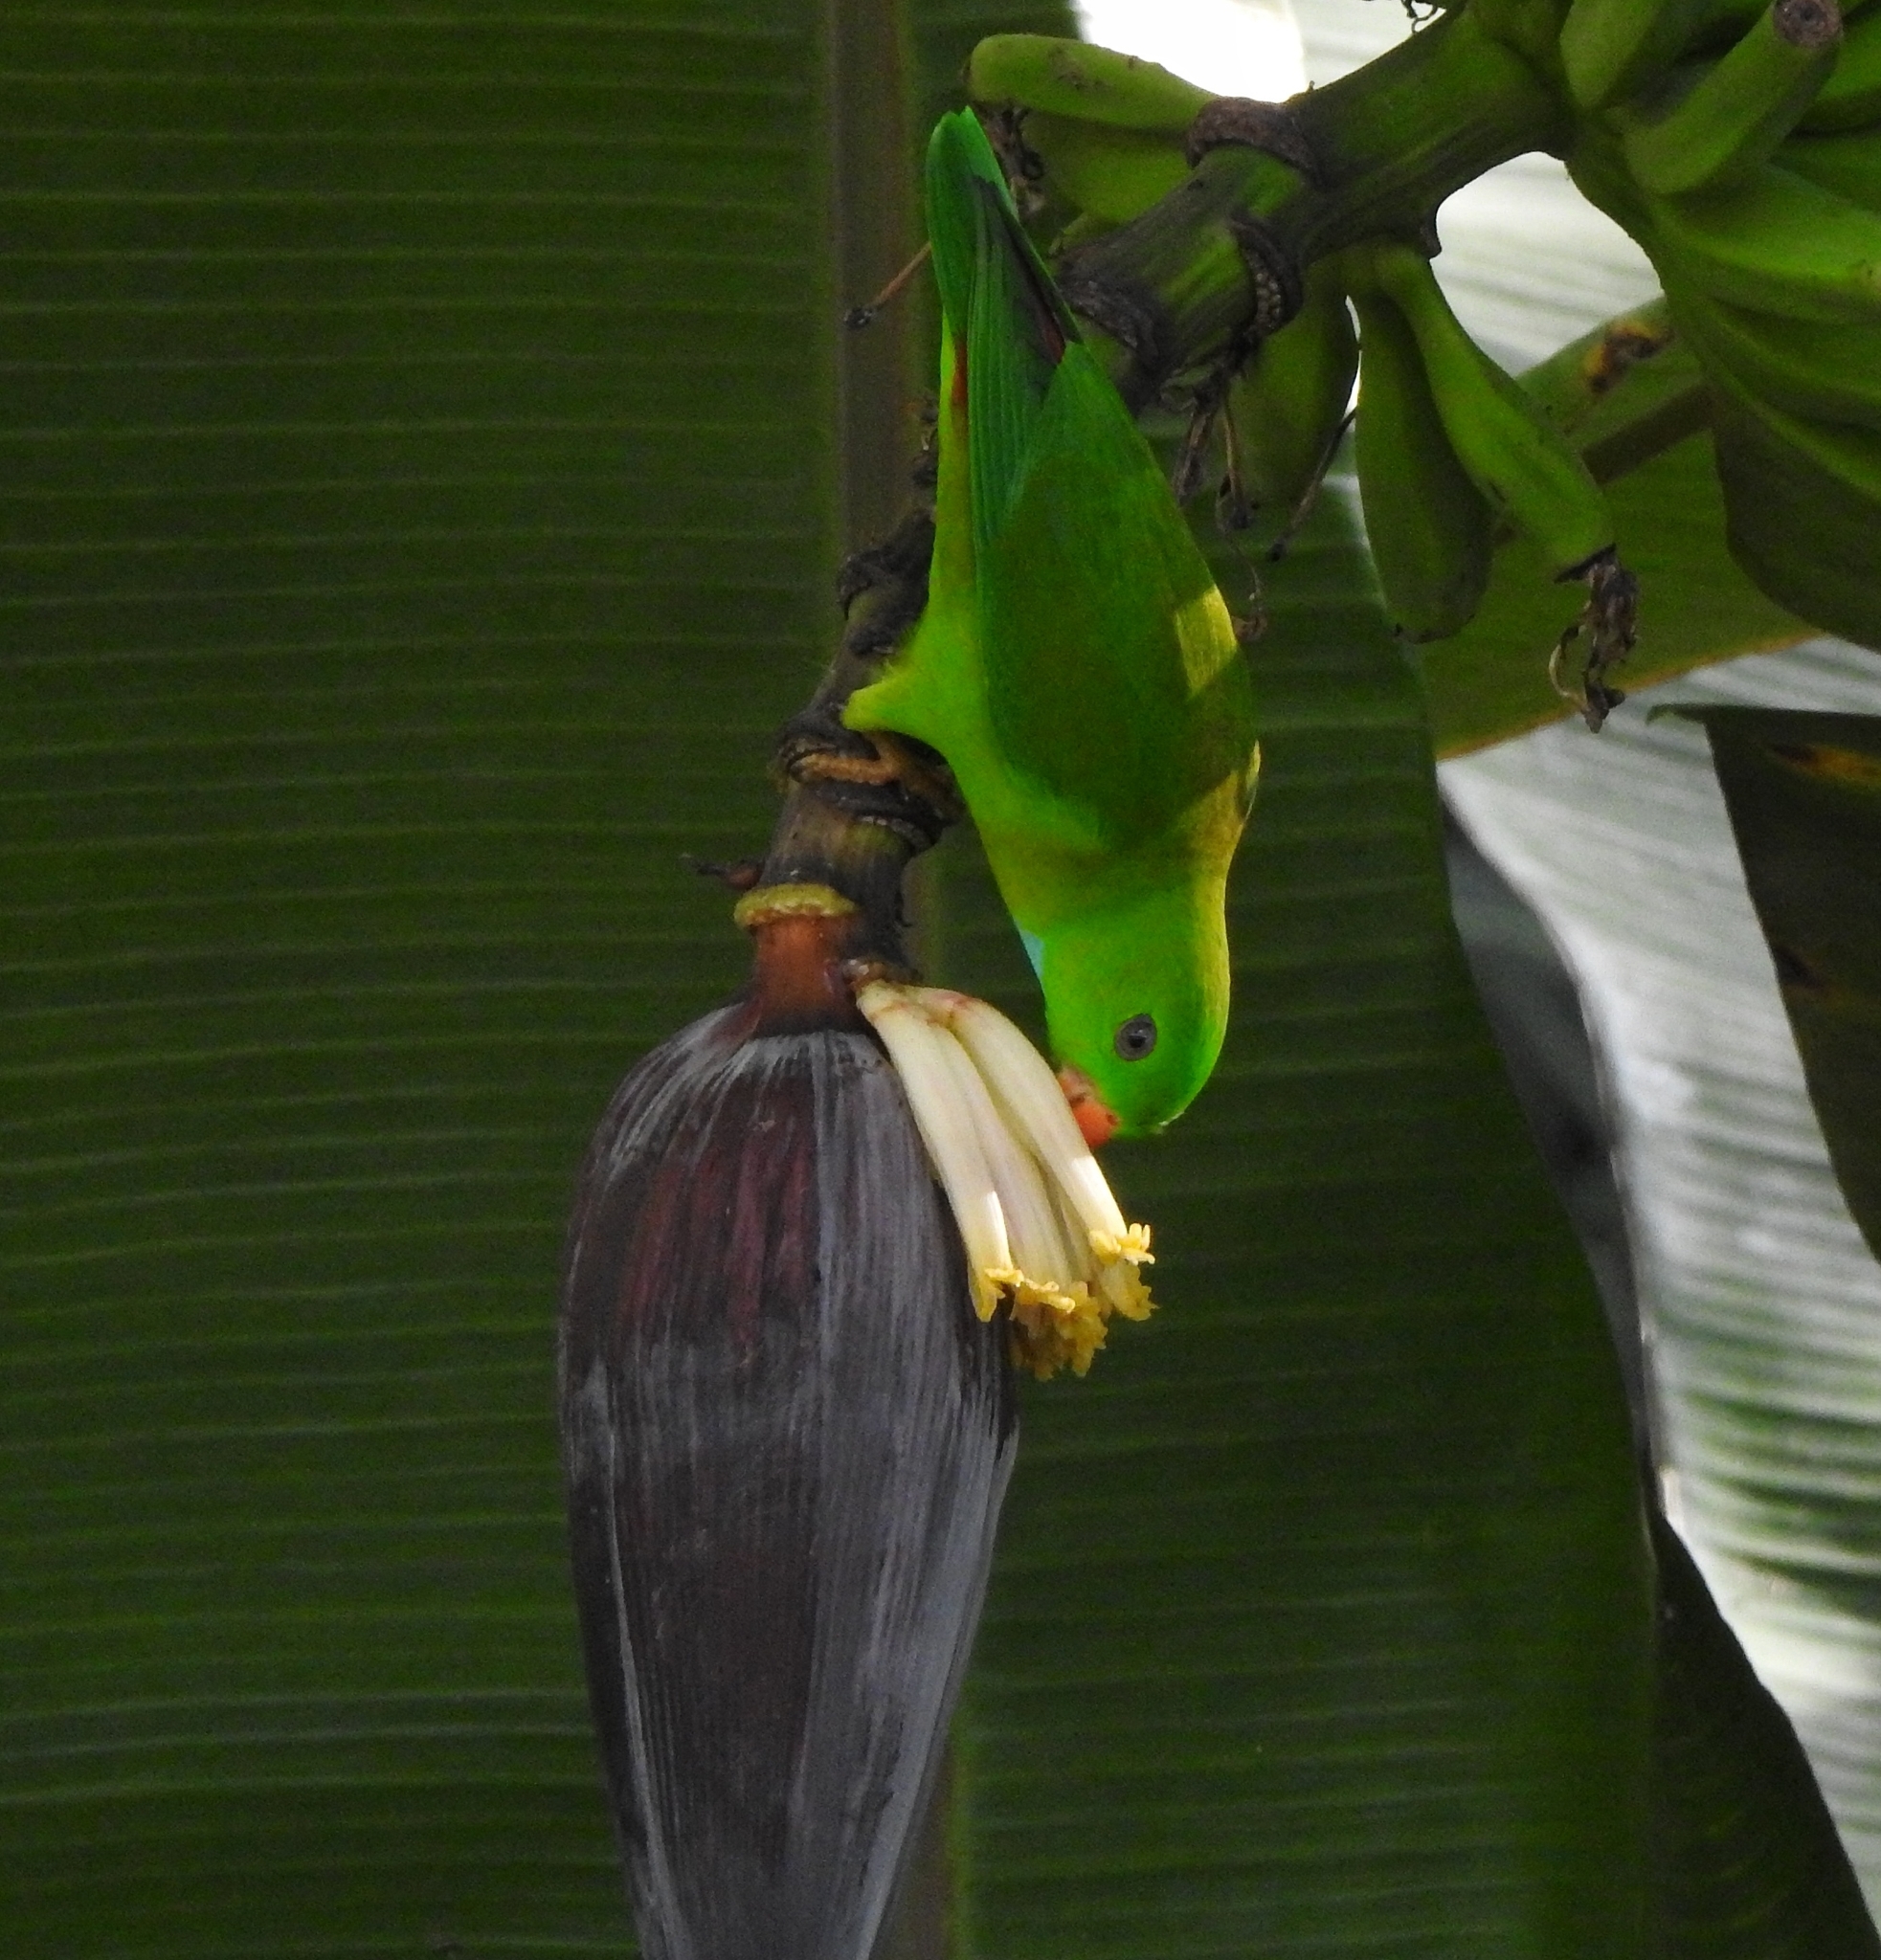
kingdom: Animalia
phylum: Chordata
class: Aves
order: Psittaciformes
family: Psittacidae
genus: Loriculus
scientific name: Loriculus vernalis
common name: Vernal hanging parrot
